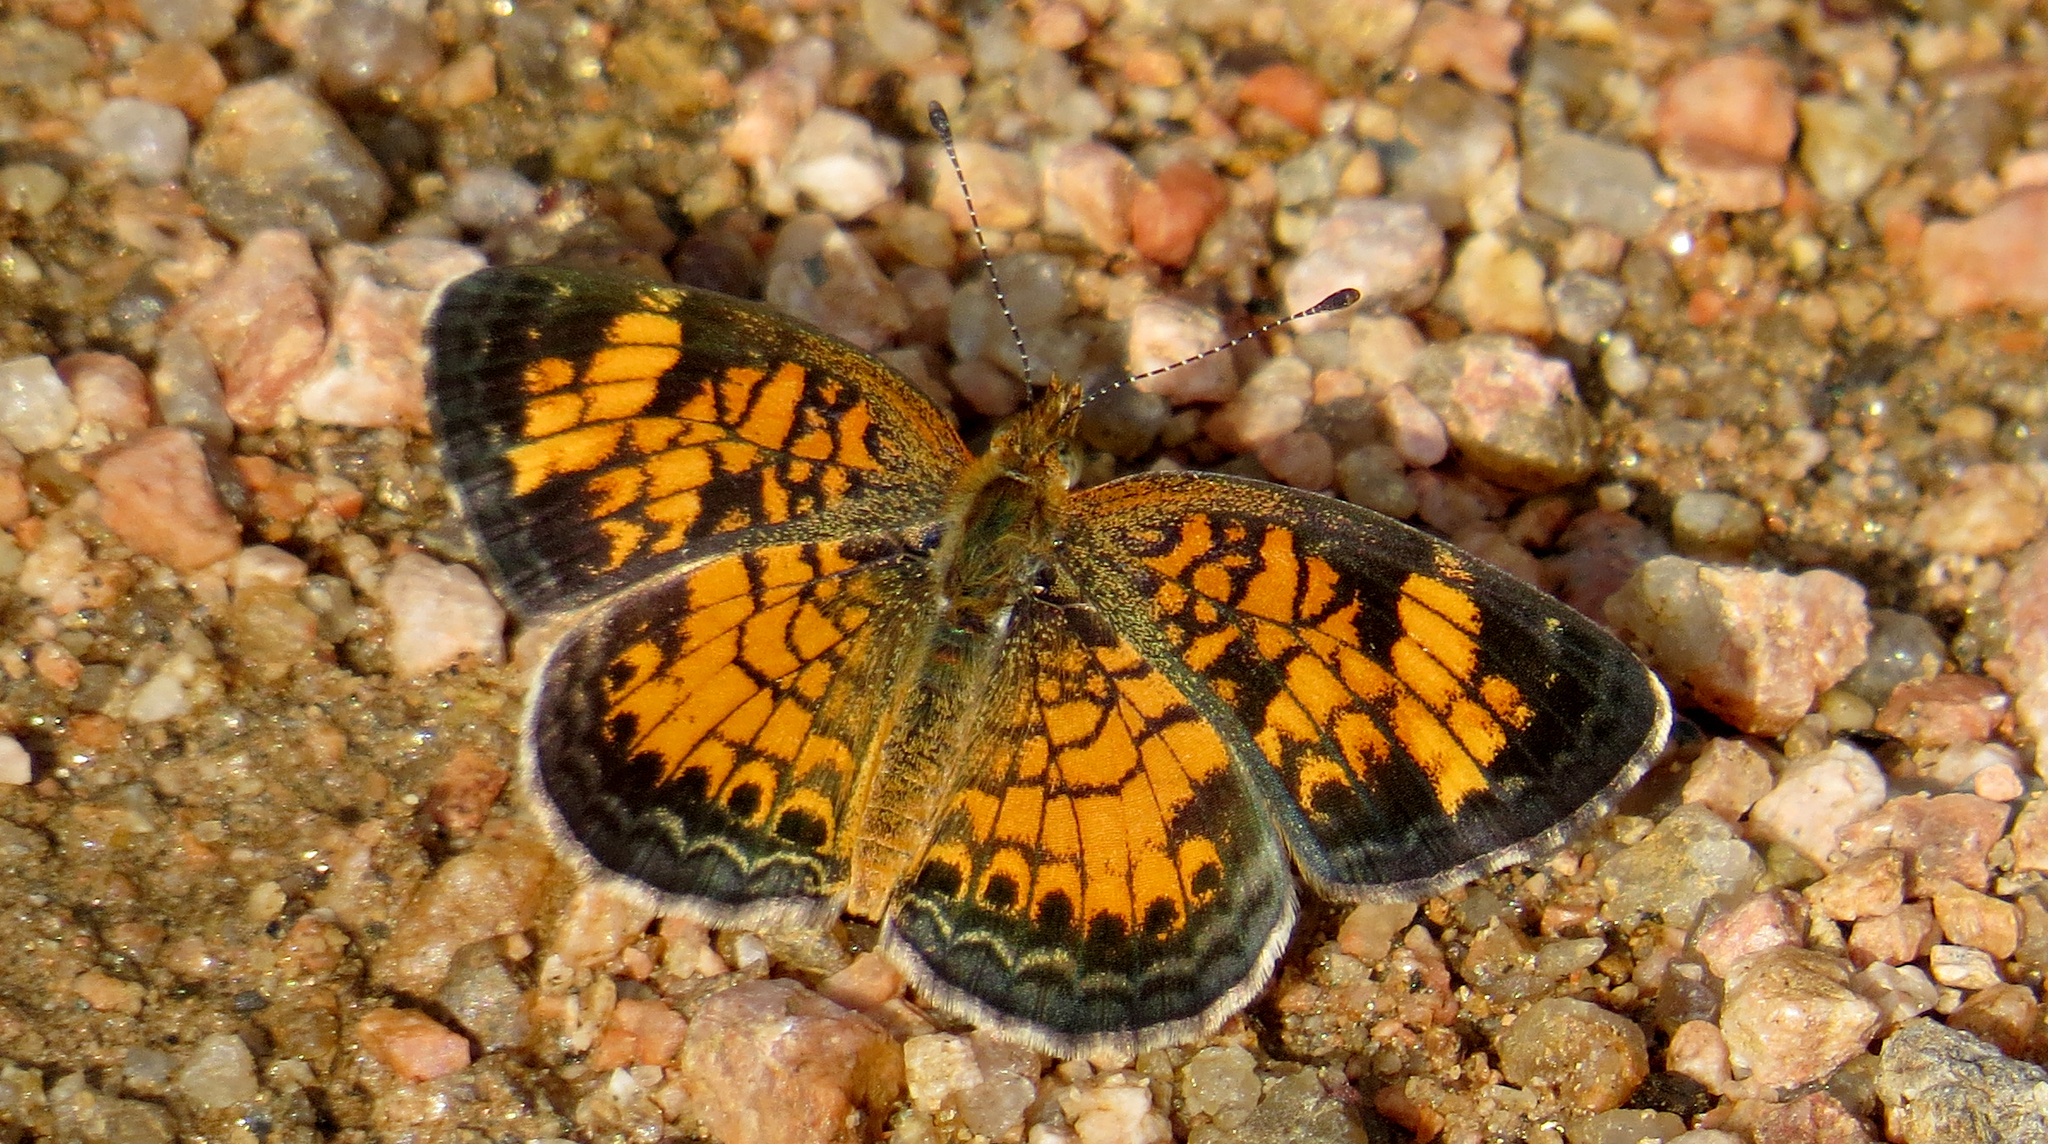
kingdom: Animalia
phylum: Arthropoda
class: Insecta
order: Lepidoptera
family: Nymphalidae
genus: Phyciodes
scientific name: Phyciodes tharos
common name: Pearl crescent
